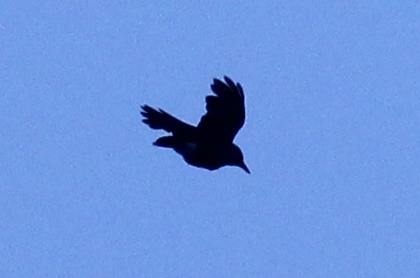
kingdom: Animalia
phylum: Chordata
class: Aves
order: Passeriformes
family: Corvidae
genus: Nucifraga
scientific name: Nucifraga caryocatactes
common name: Spotted nutcracker
